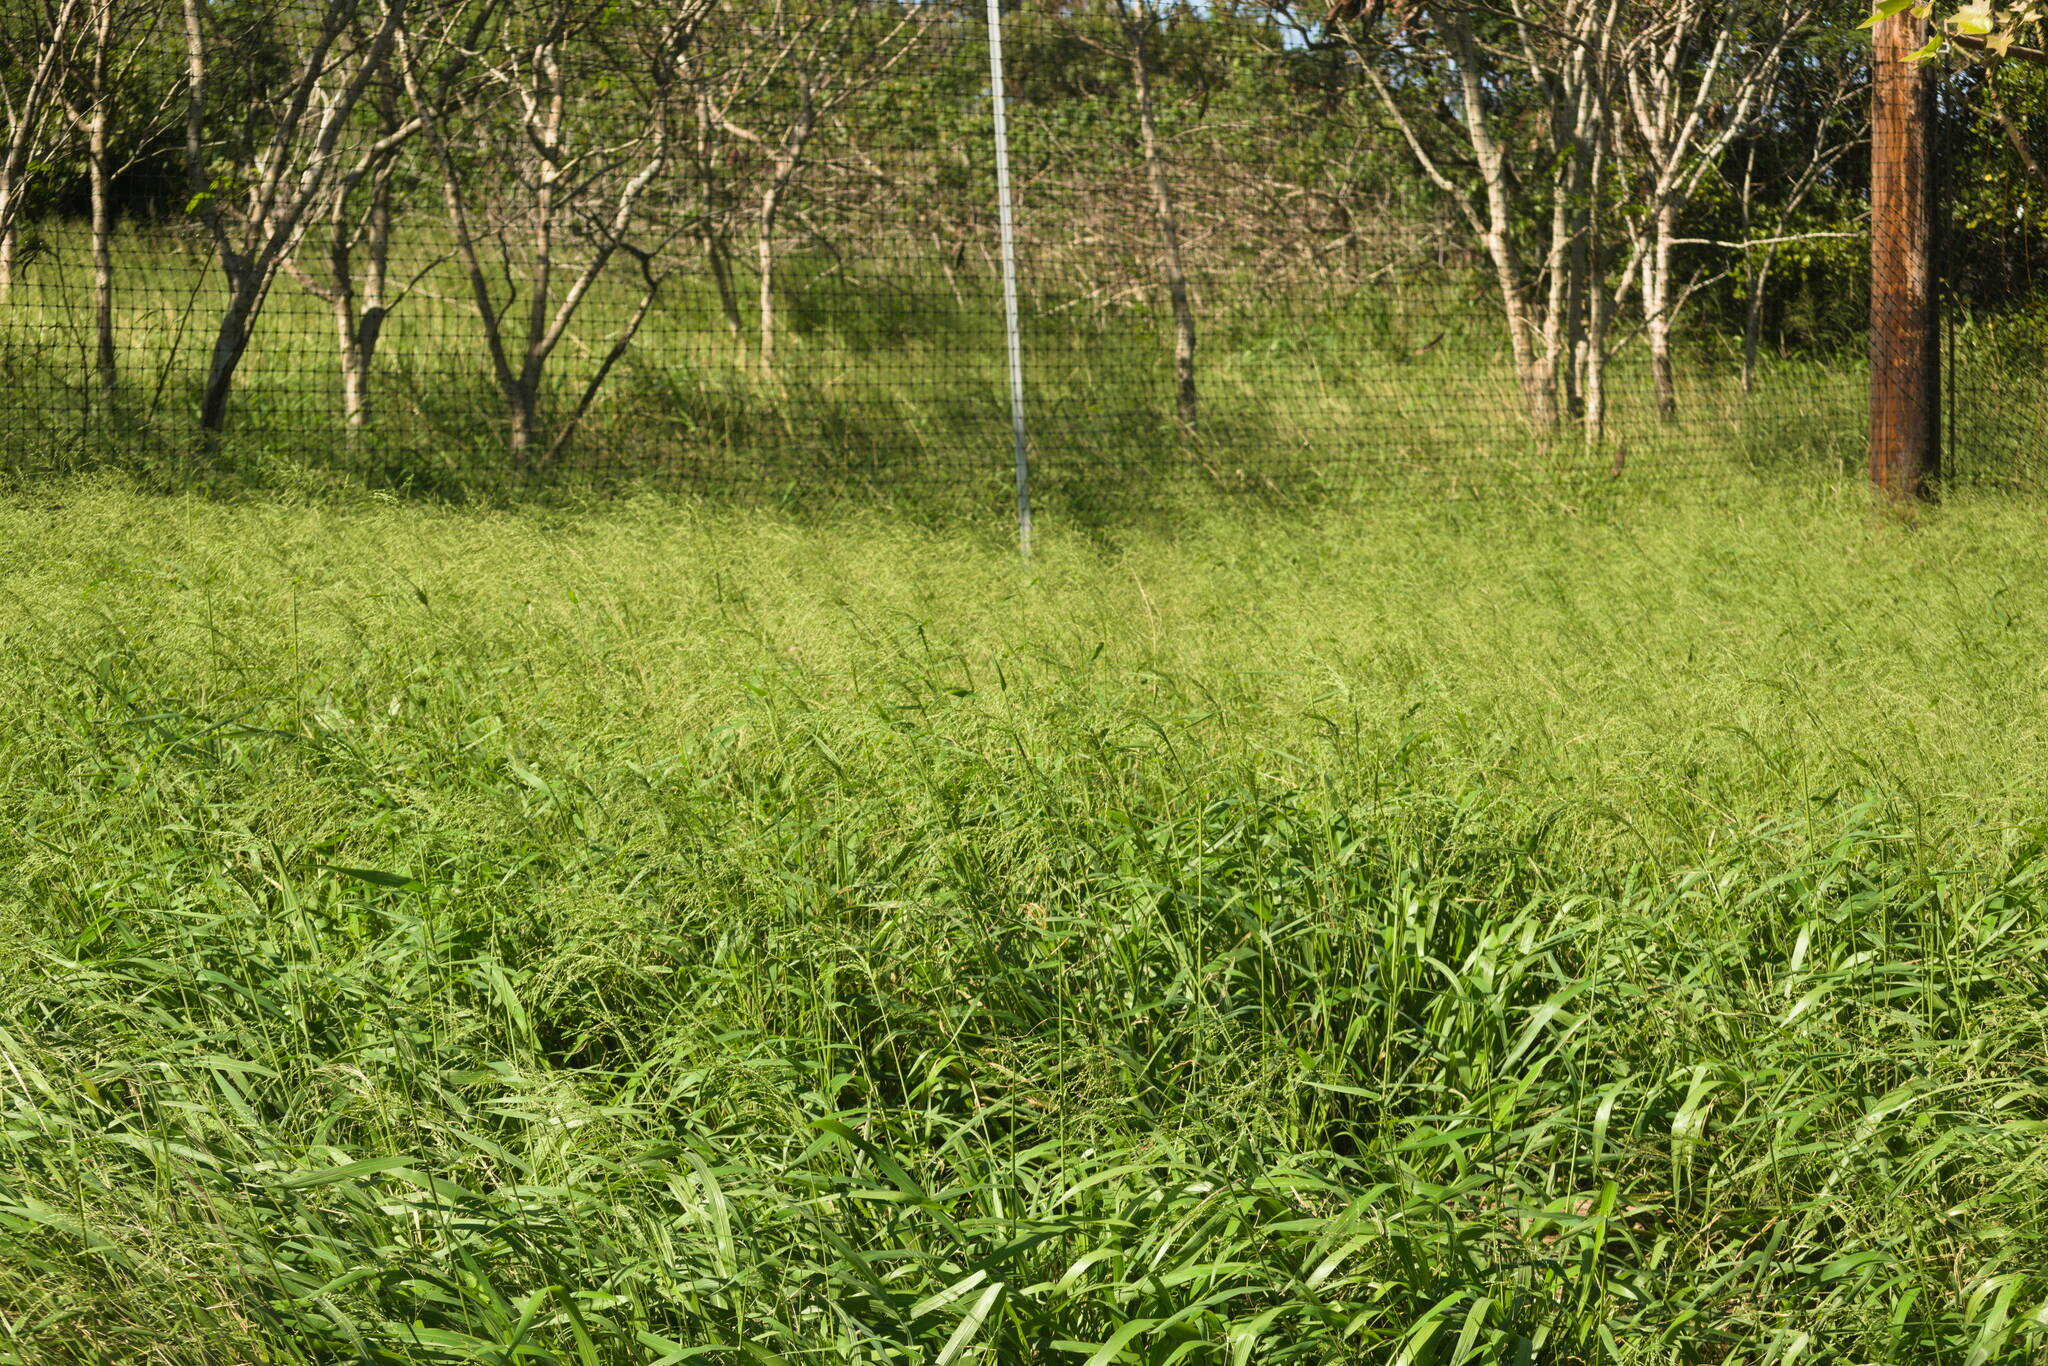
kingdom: Plantae
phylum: Tracheophyta
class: Liliopsida
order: Poales
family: Poaceae
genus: Megathyrsus
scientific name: Megathyrsus maximus
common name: Guineagrass
